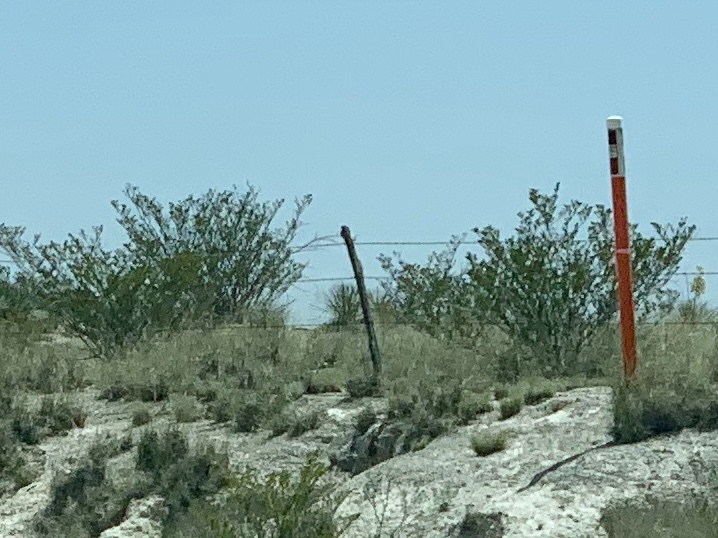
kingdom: Plantae
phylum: Tracheophyta
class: Magnoliopsida
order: Zygophyllales
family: Zygophyllaceae
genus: Larrea
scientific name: Larrea tridentata
